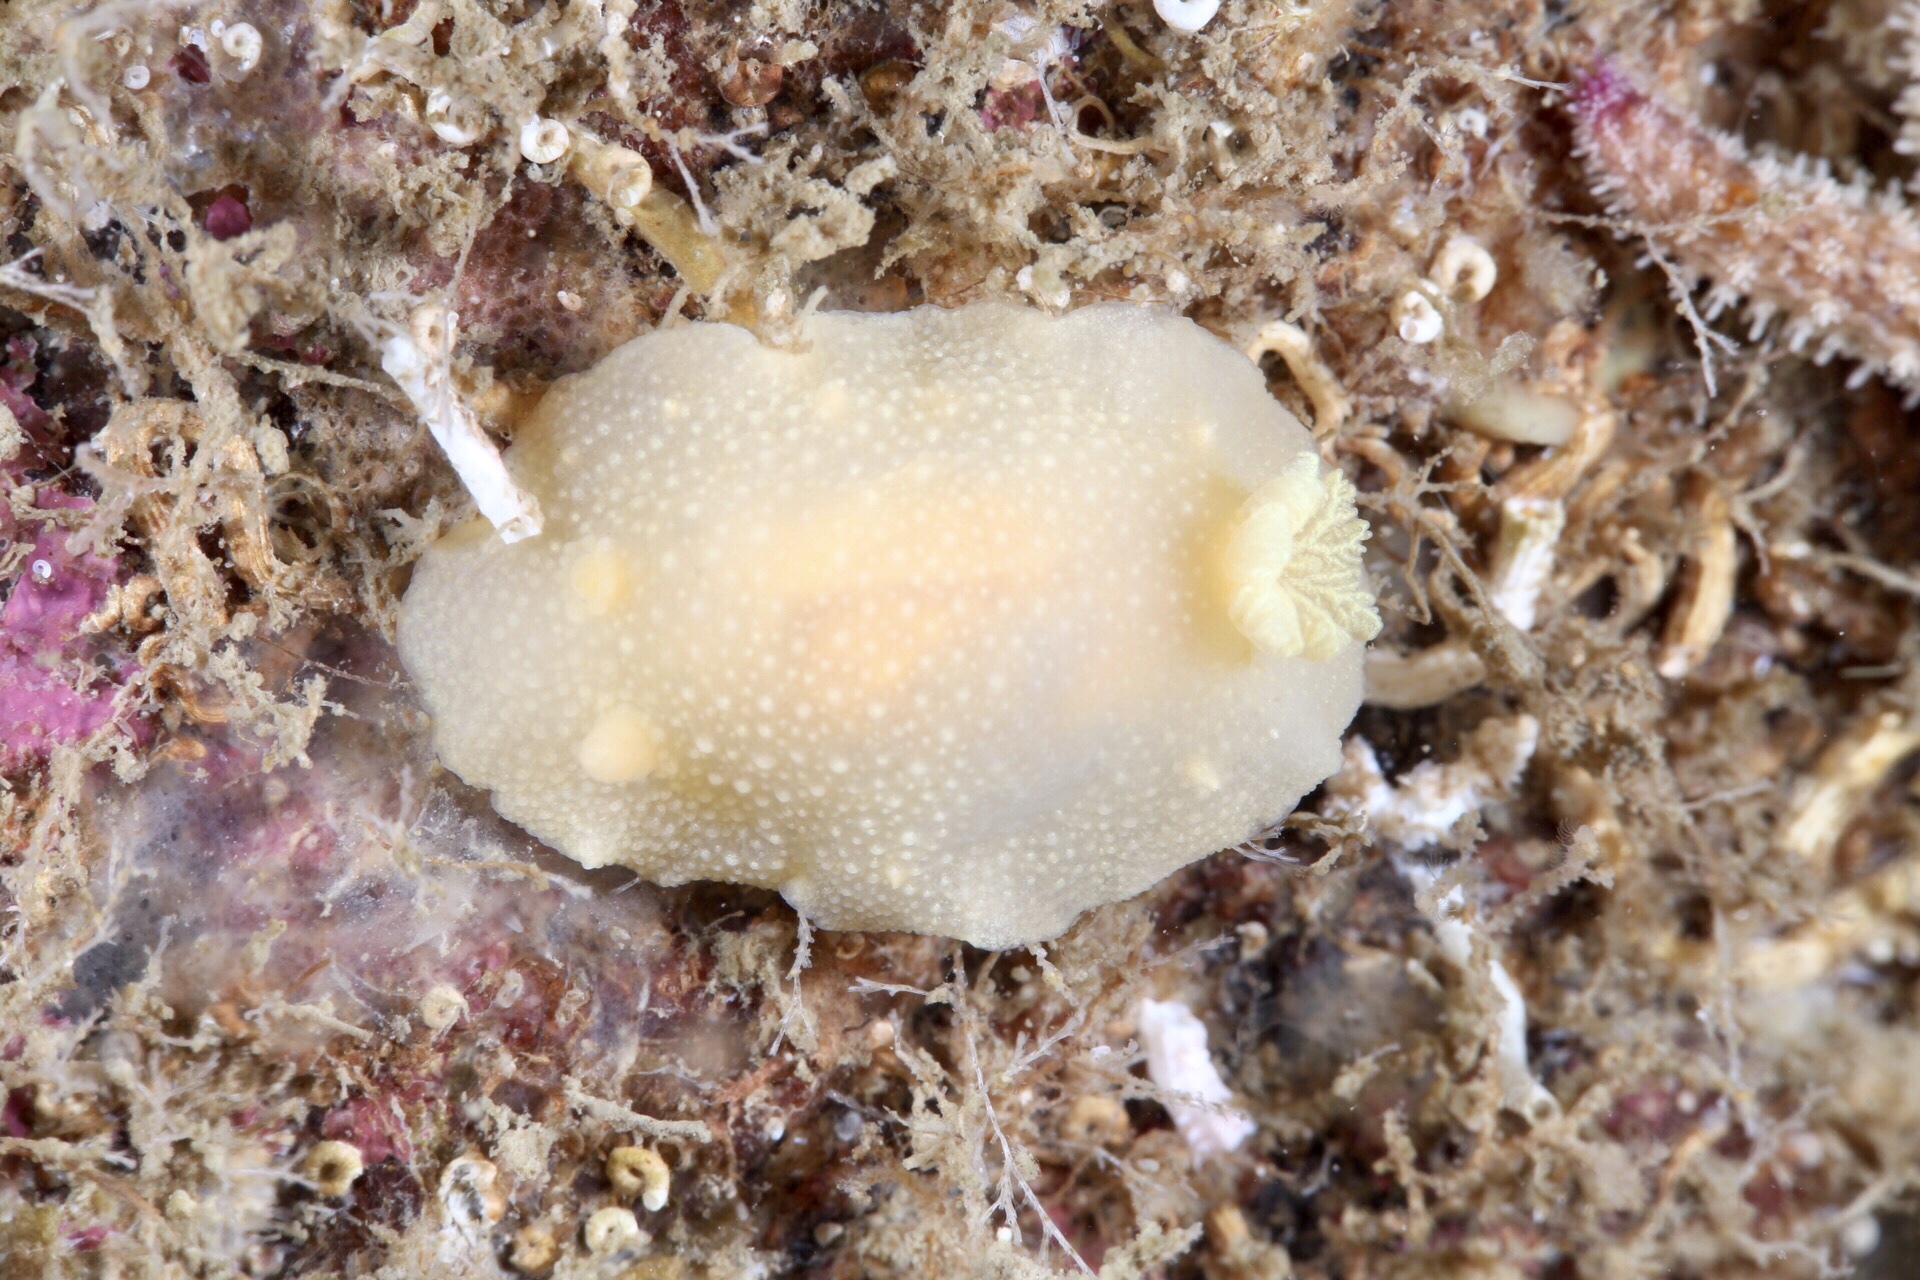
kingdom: Animalia
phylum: Mollusca
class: Gastropoda
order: Nudibranchia
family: Cadlinidae
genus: Cadlina
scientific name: Cadlina laevis
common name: White atlantic cadlina
